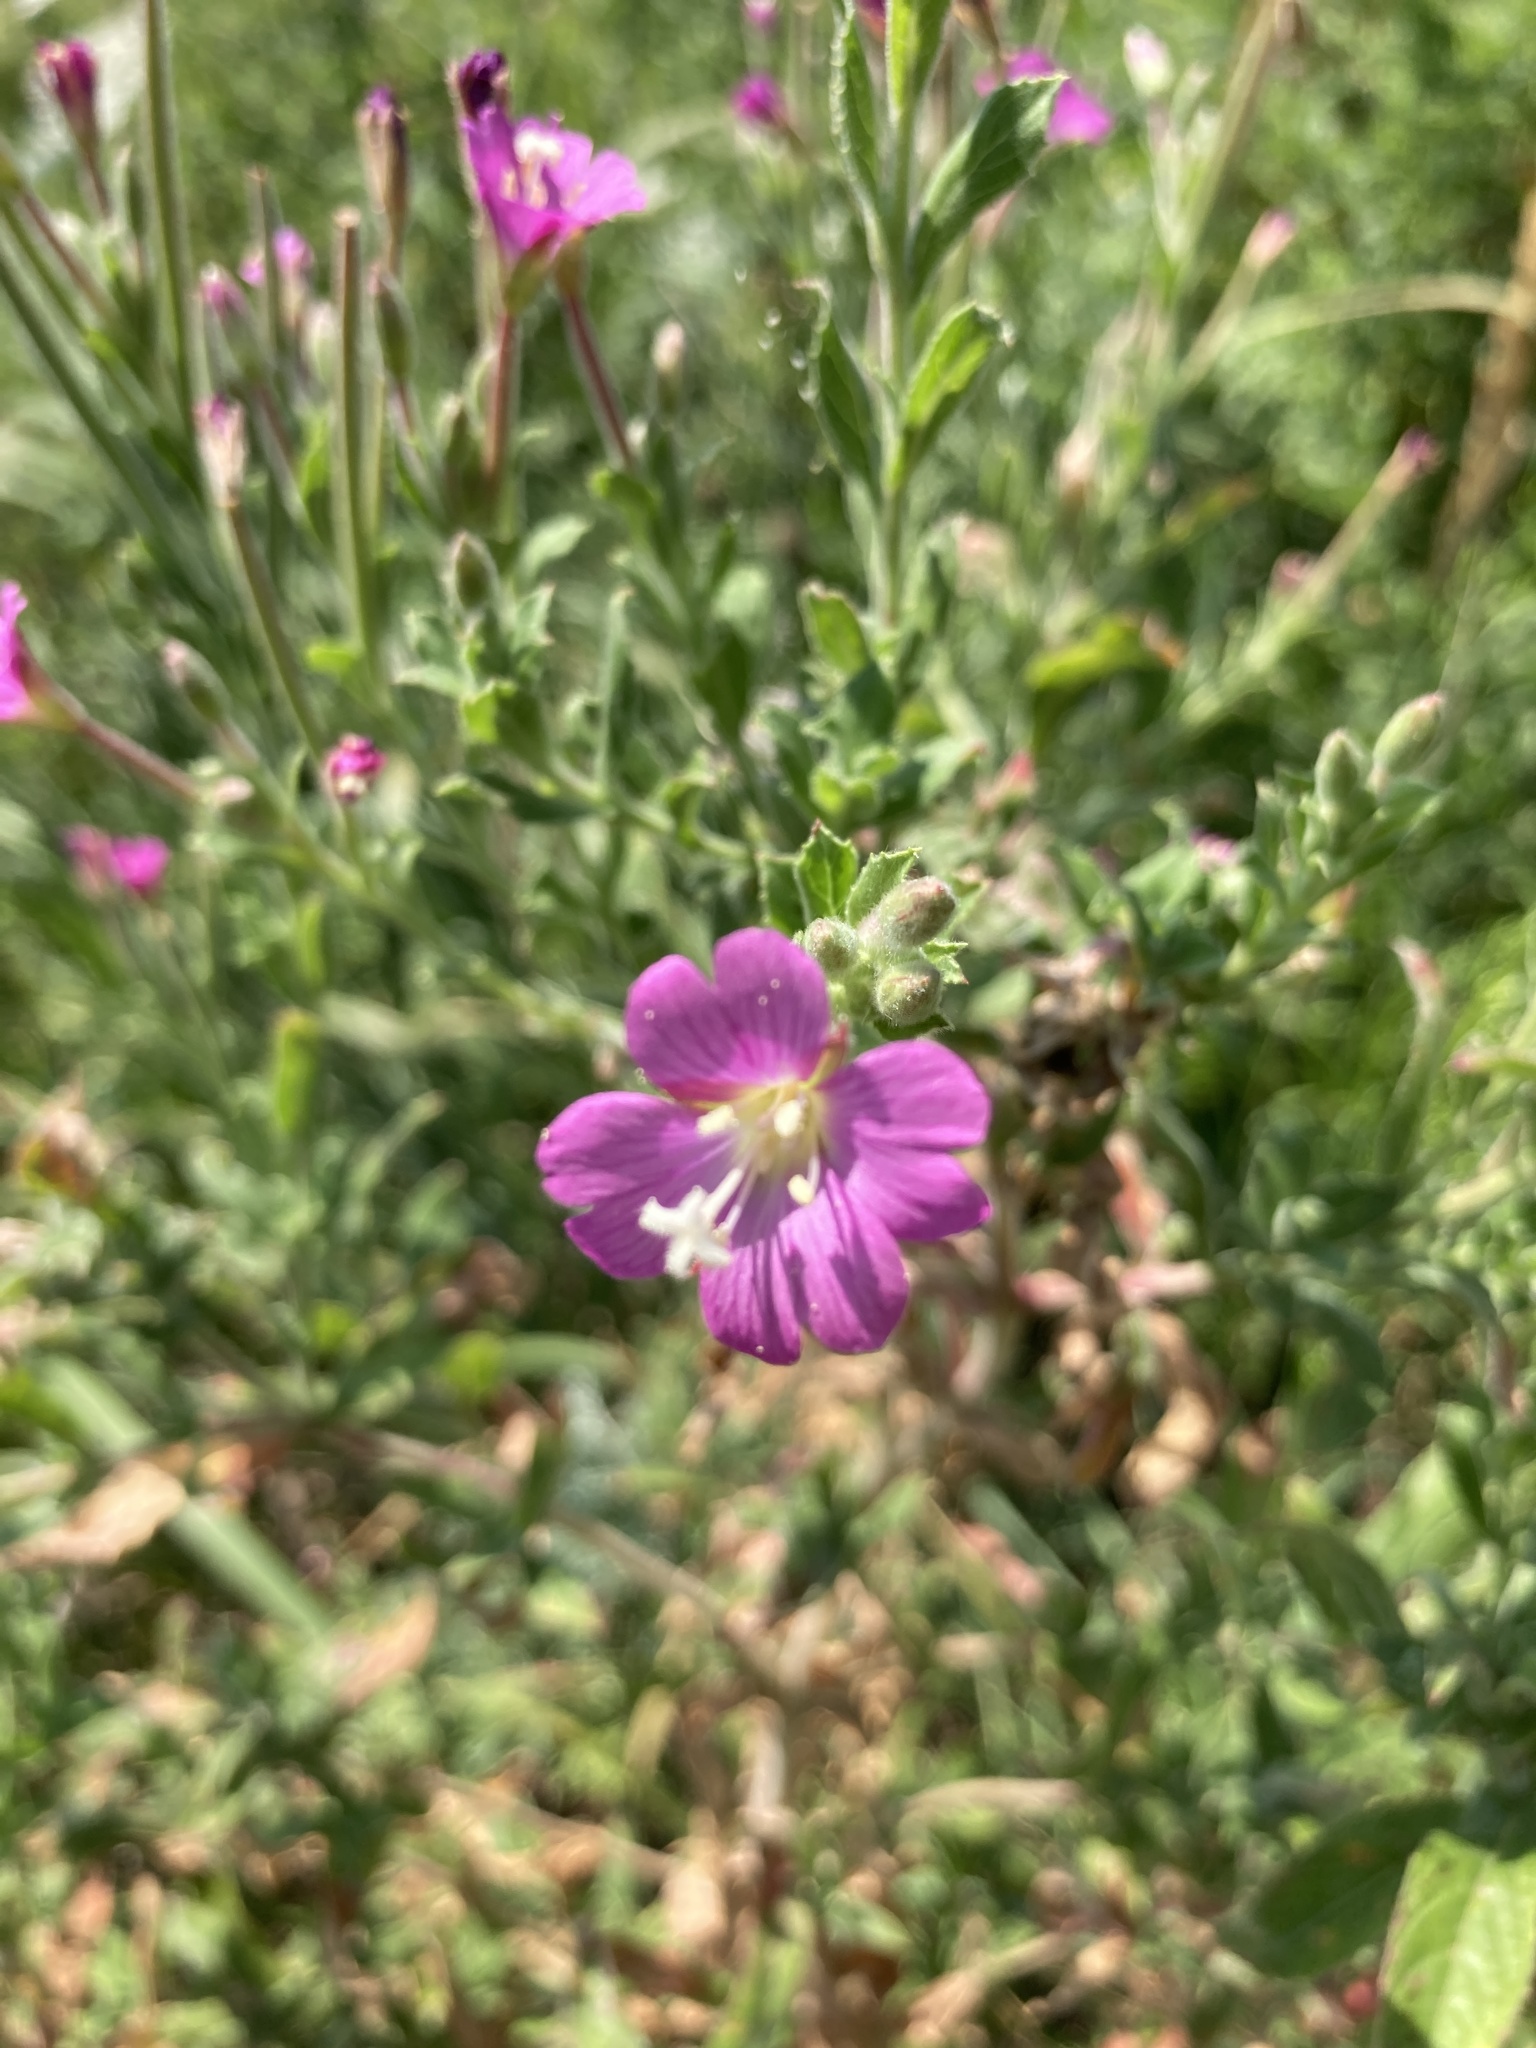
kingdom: Plantae
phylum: Tracheophyta
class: Magnoliopsida
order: Myrtales
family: Onagraceae
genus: Epilobium
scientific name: Epilobium hirsutum
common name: Great willowherb
